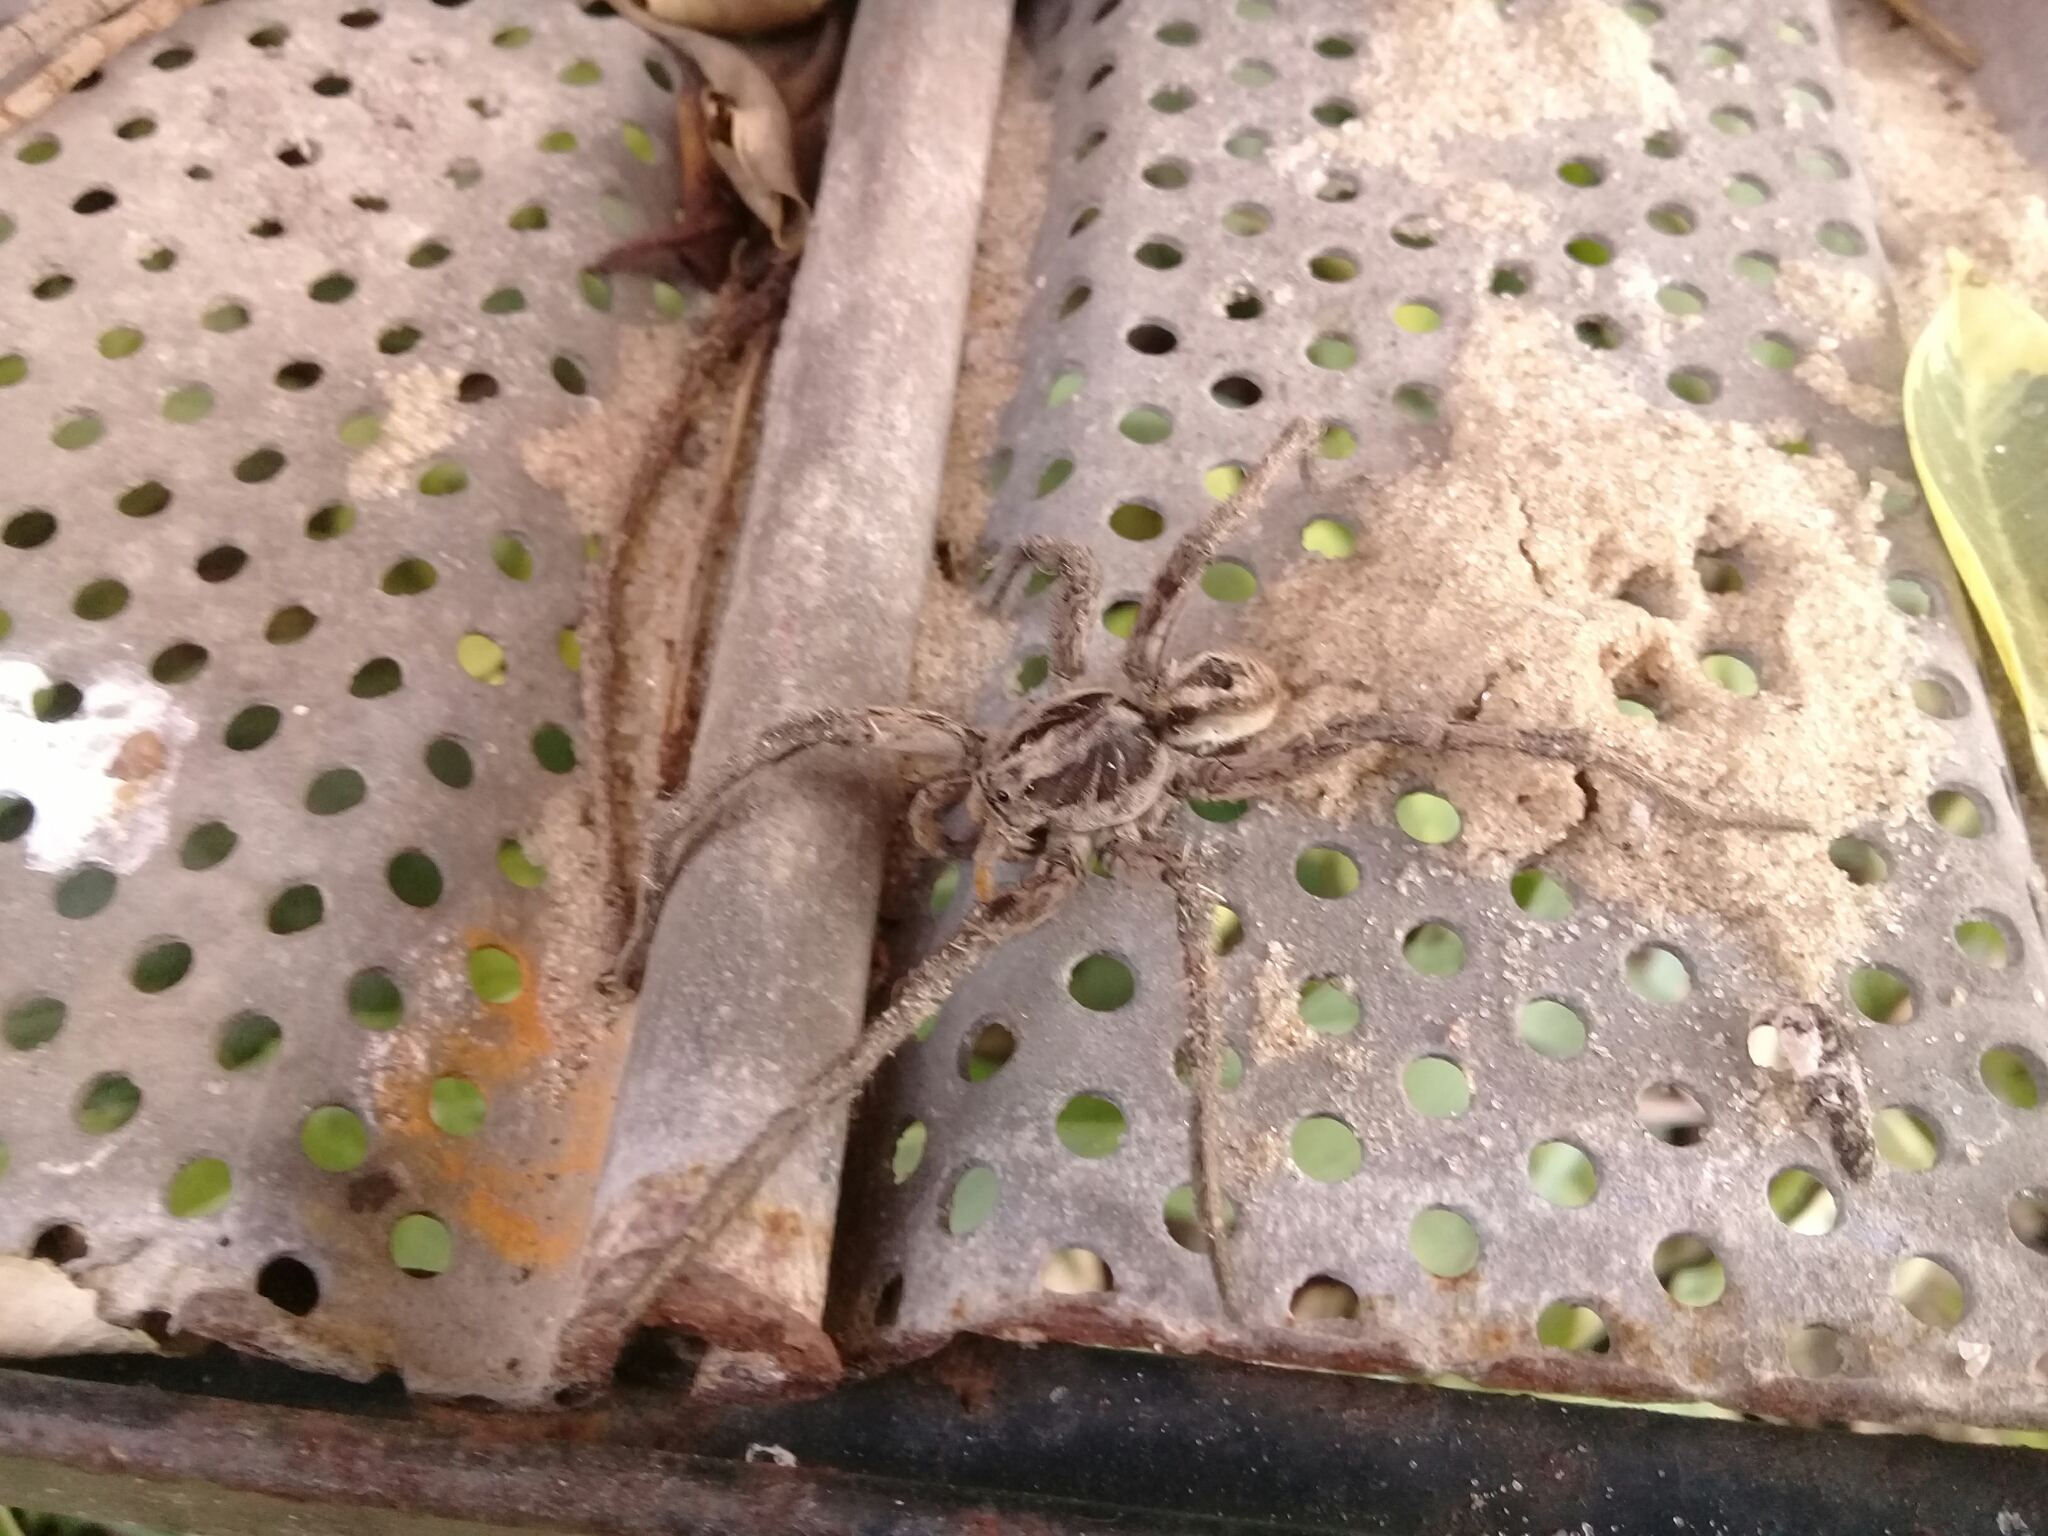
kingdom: Animalia
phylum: Arthropoda
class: Arachnida
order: Araneae
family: Lycosidae
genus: Lycosa
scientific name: Lycosa erythrognatha
